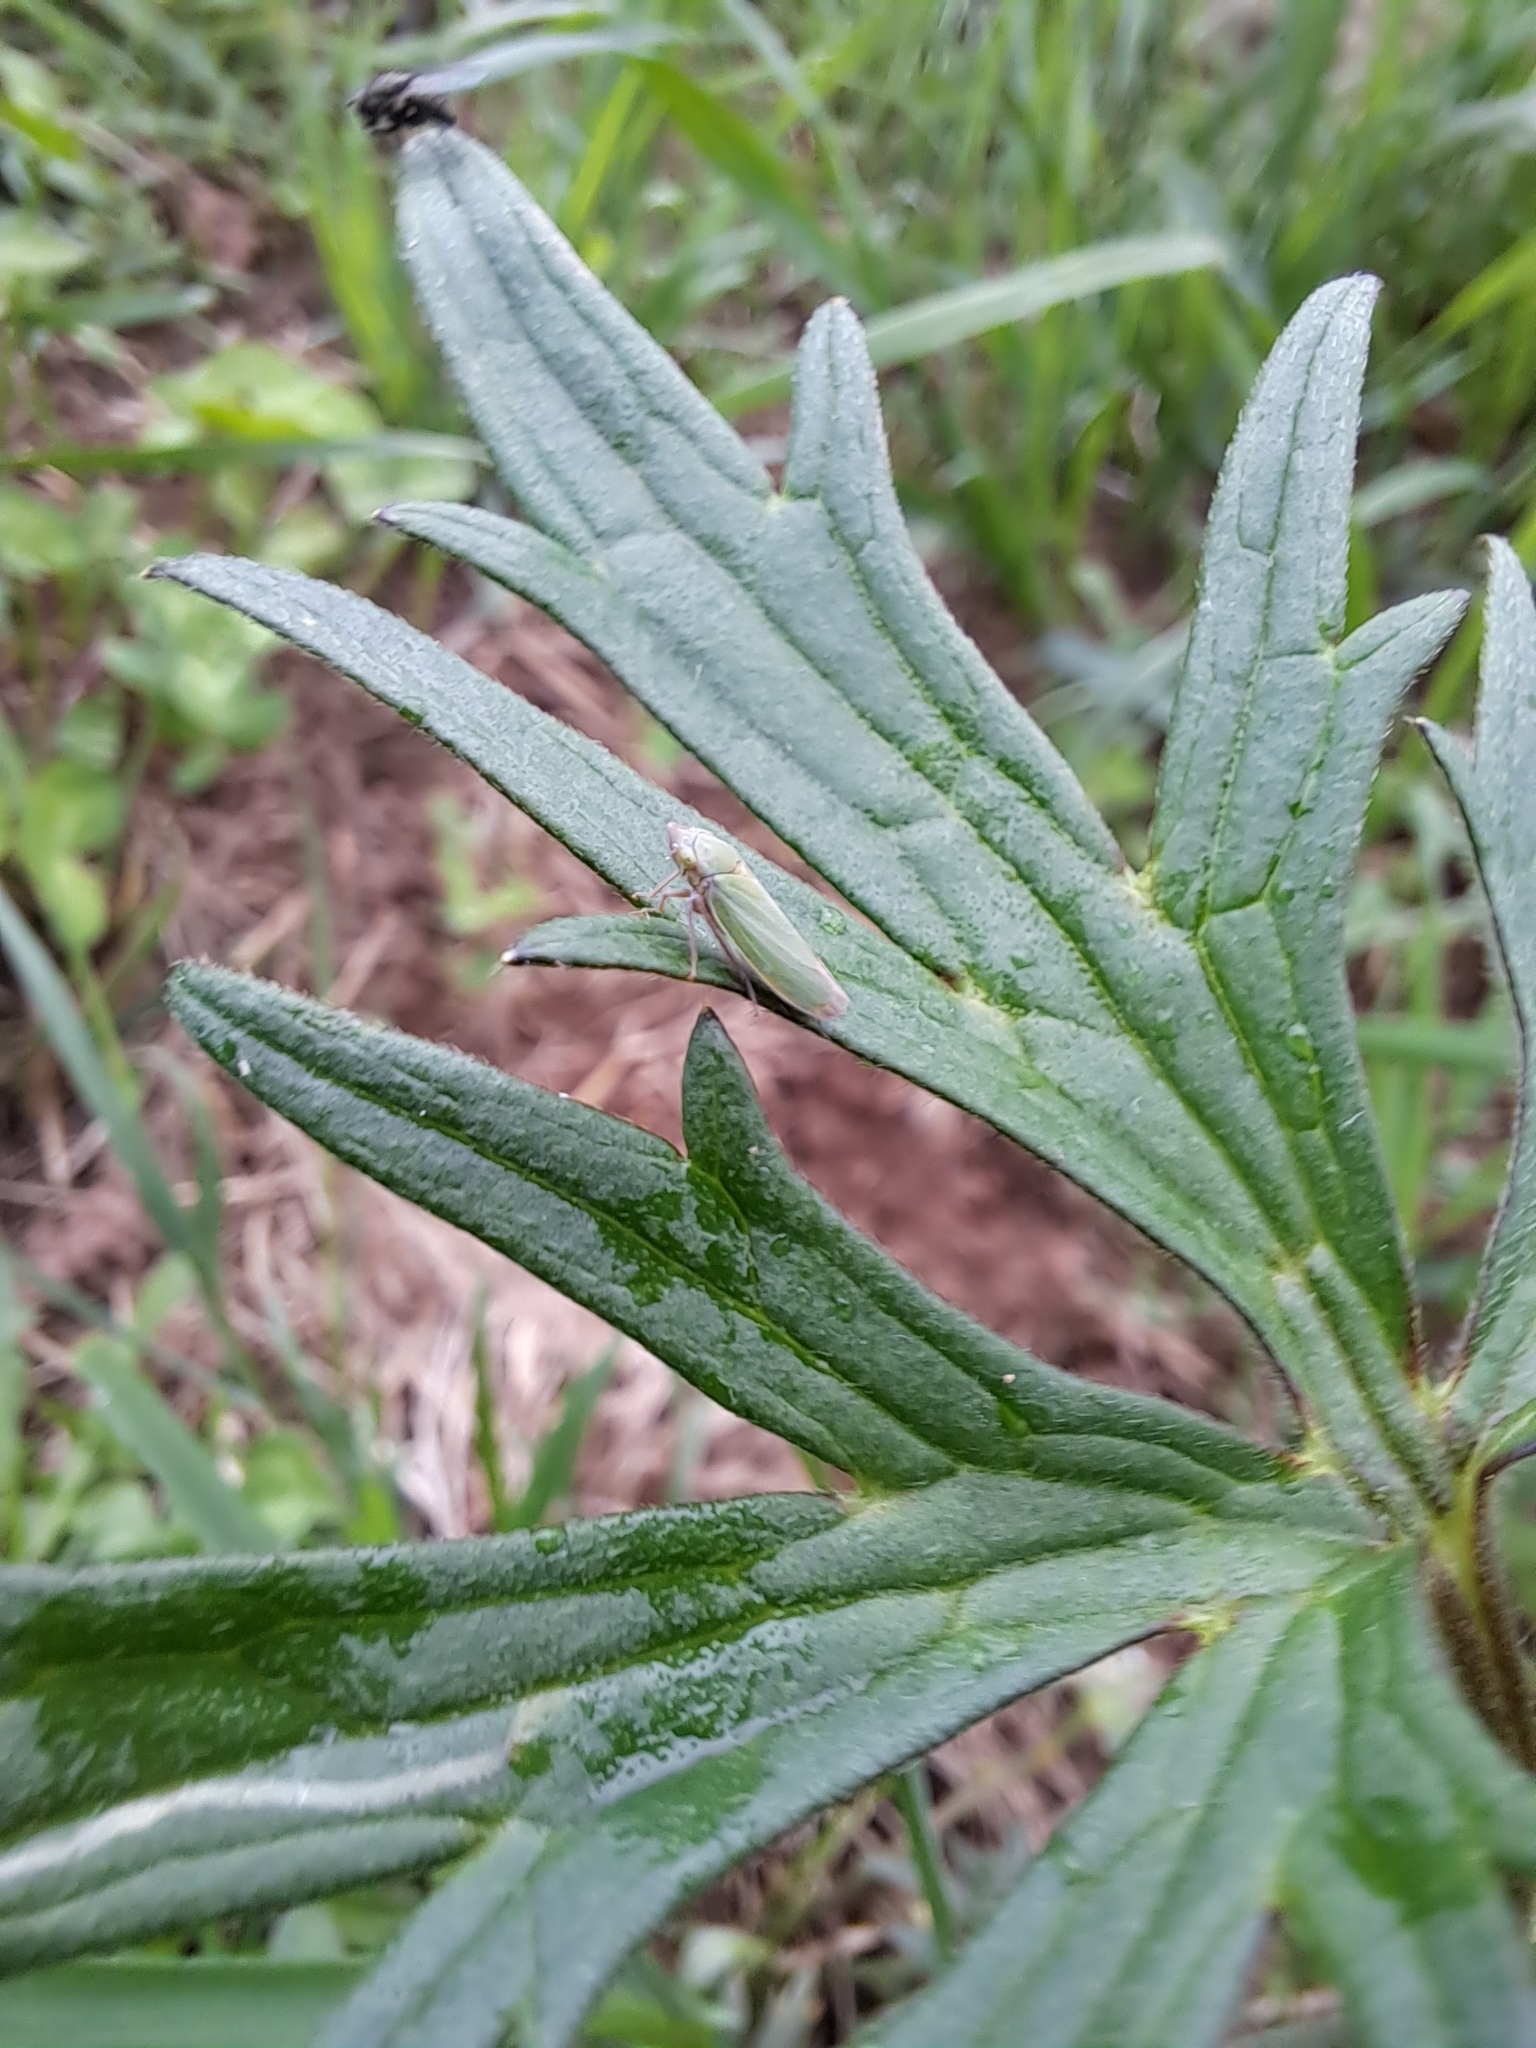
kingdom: Animalia
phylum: Arthropoda
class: Insecta
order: Hemiptera
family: Cicadellidae
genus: Helochara
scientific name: Helochara communis
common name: Bog leafhopper
